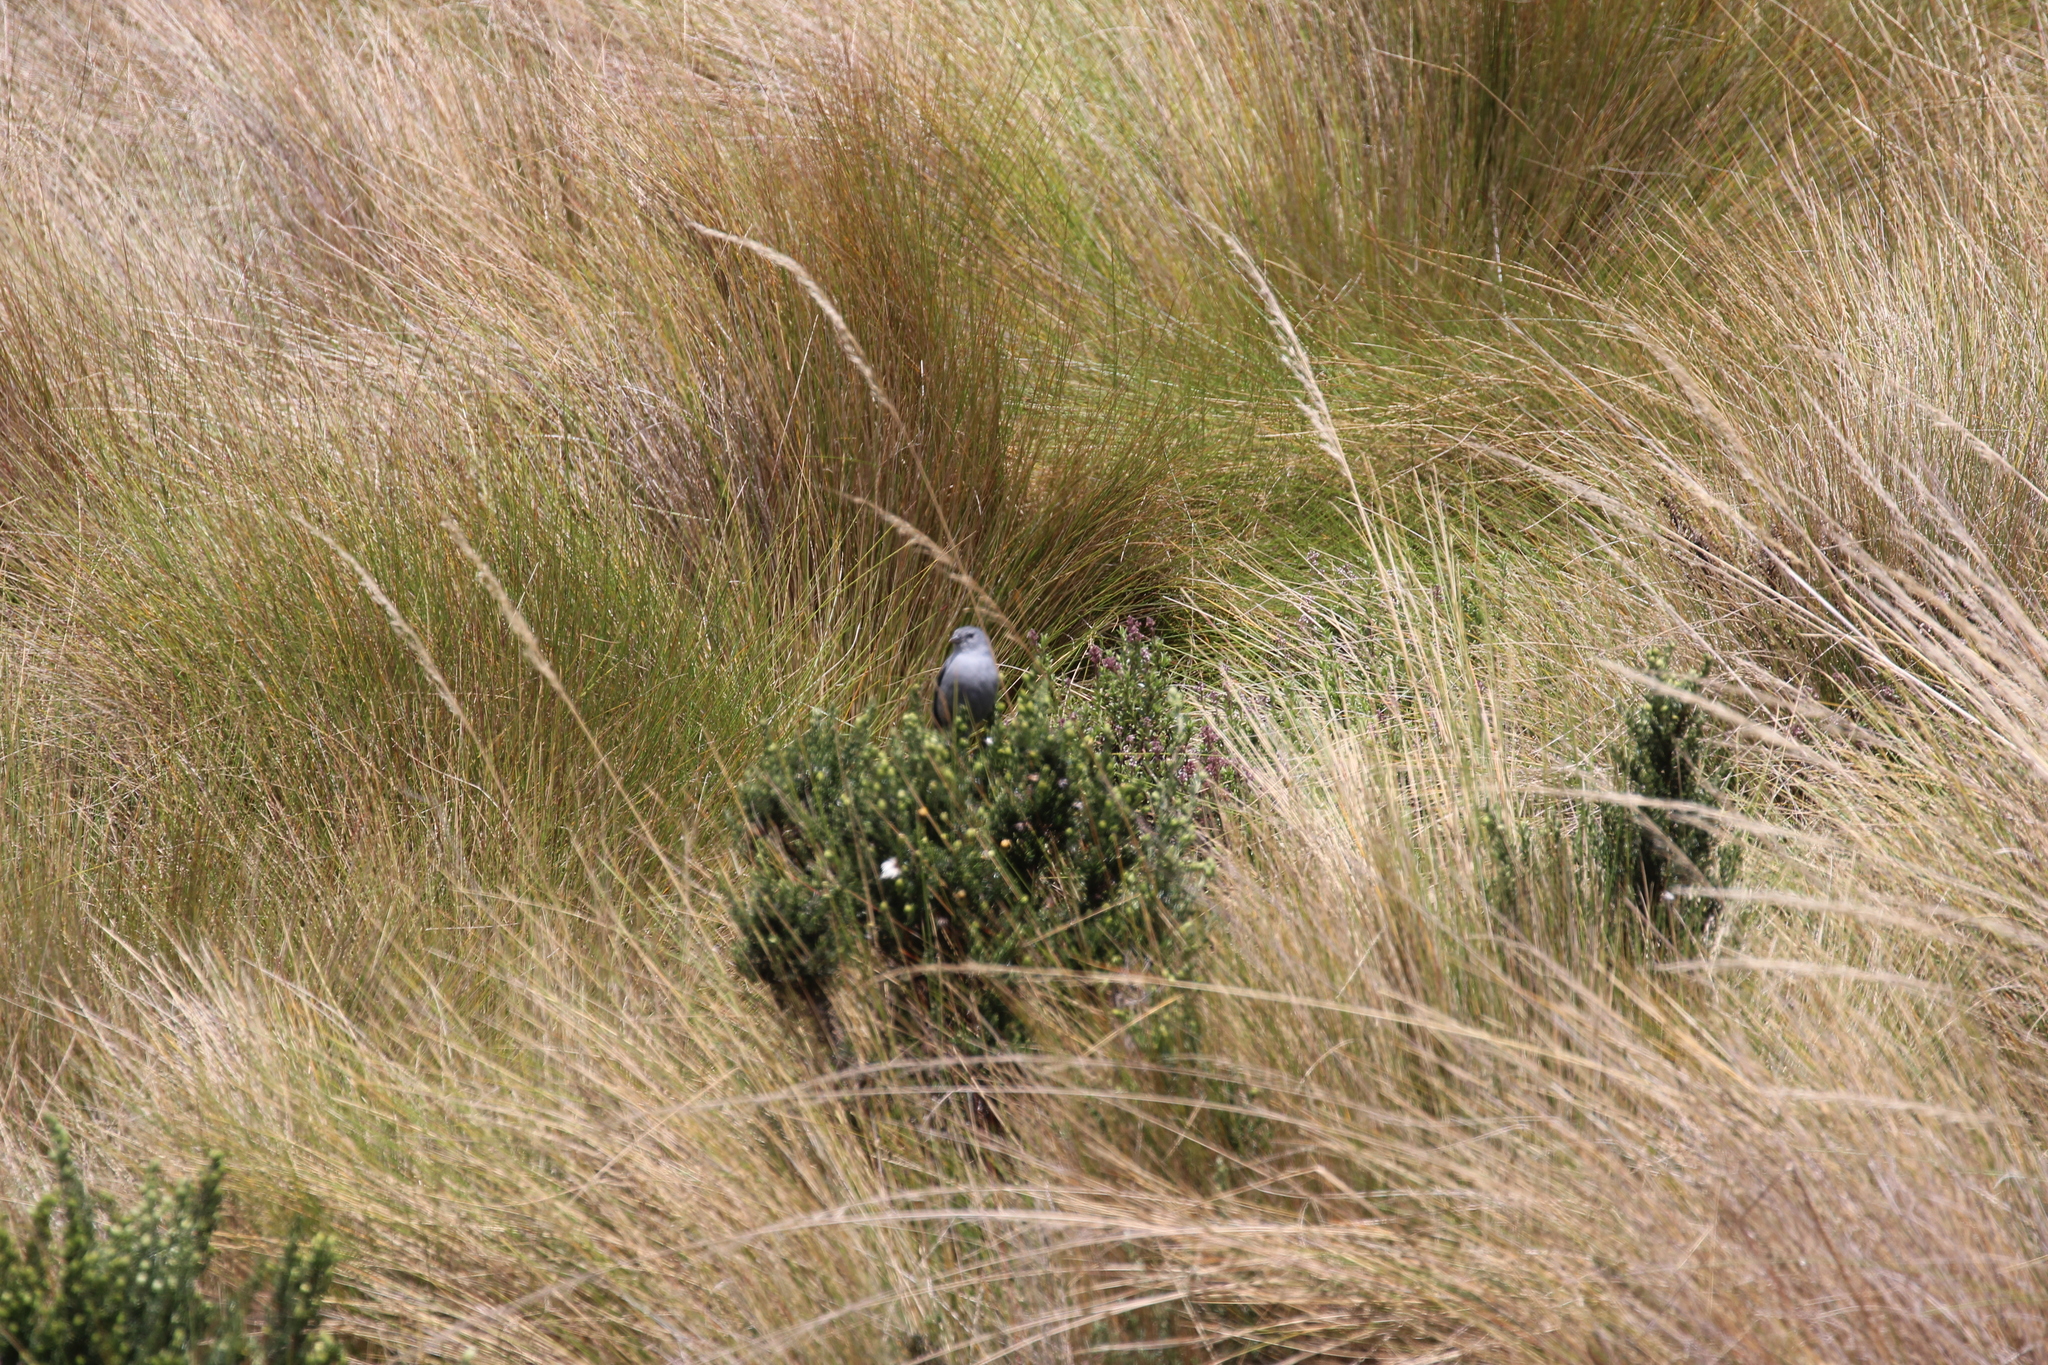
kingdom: Animalia
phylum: Chordata
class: Aves
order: Passeriformes
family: Thraupidae
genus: Geospizopsis
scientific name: Geospizopsis unicolor
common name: Plumbeous sierra-finch
